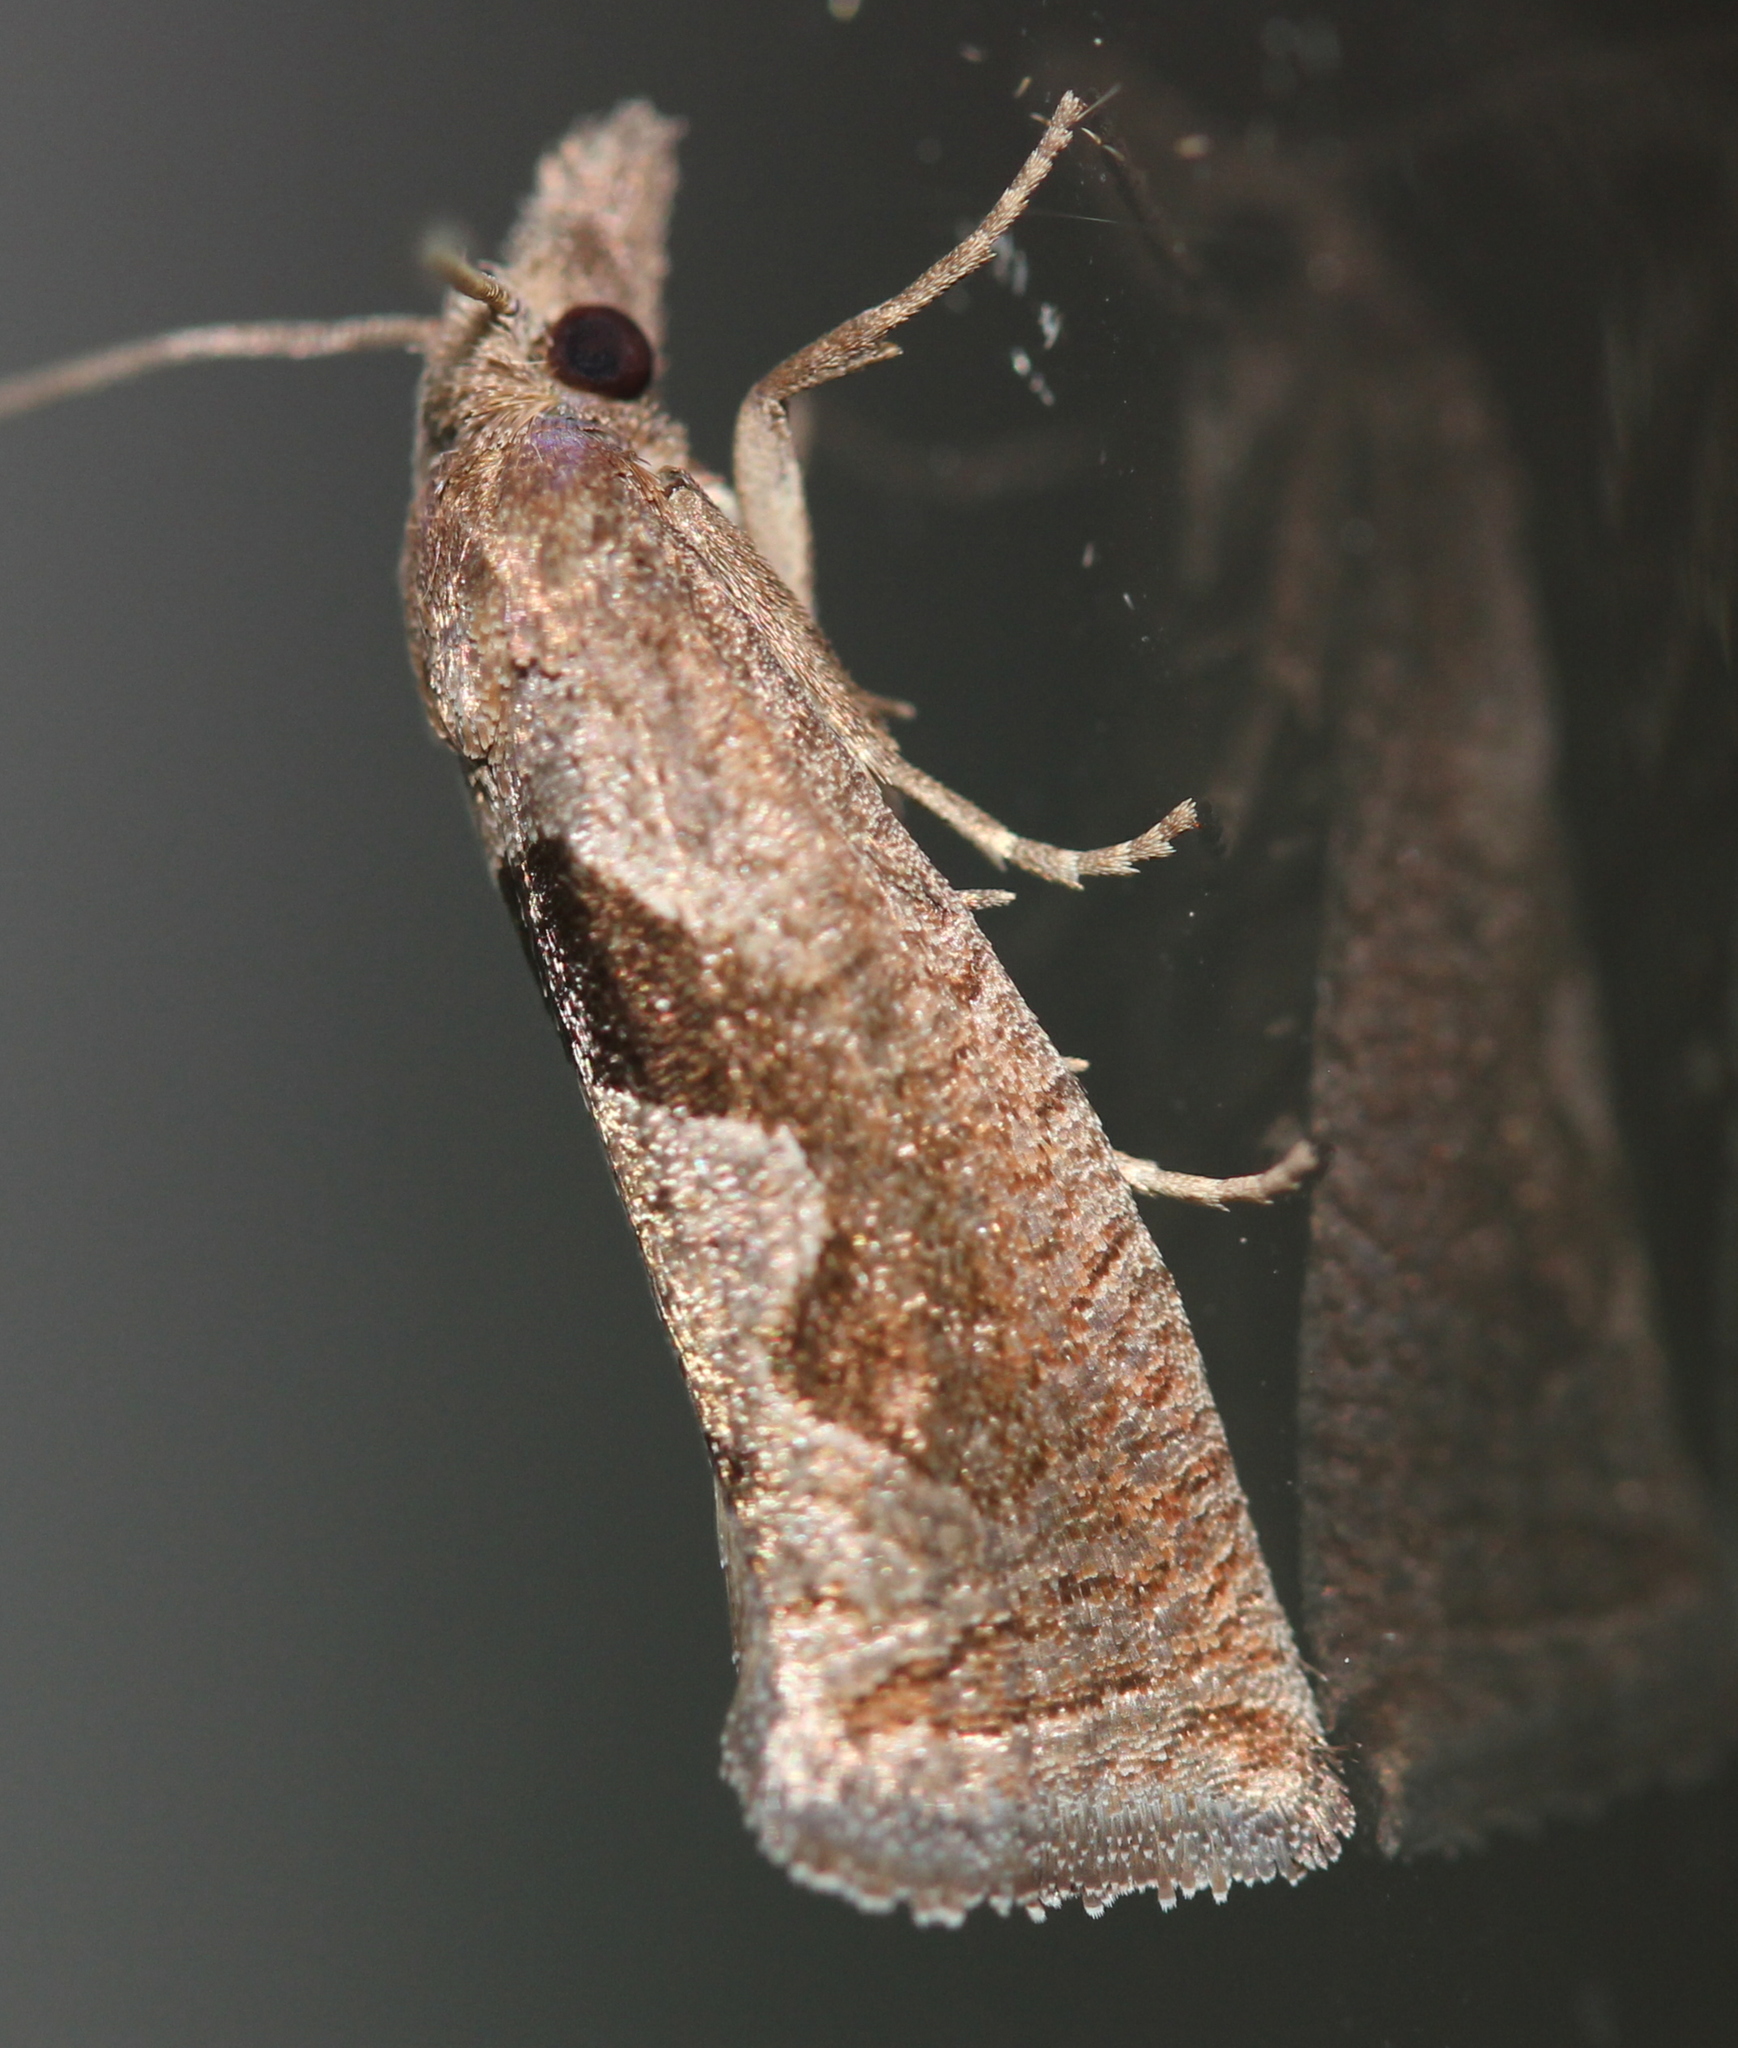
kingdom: Animalia
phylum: Arthropoda
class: Insecta
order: Lepidoptera
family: Tortricidae
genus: Pelochrista
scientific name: Pelochrista similiana
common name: Similar eucosma
